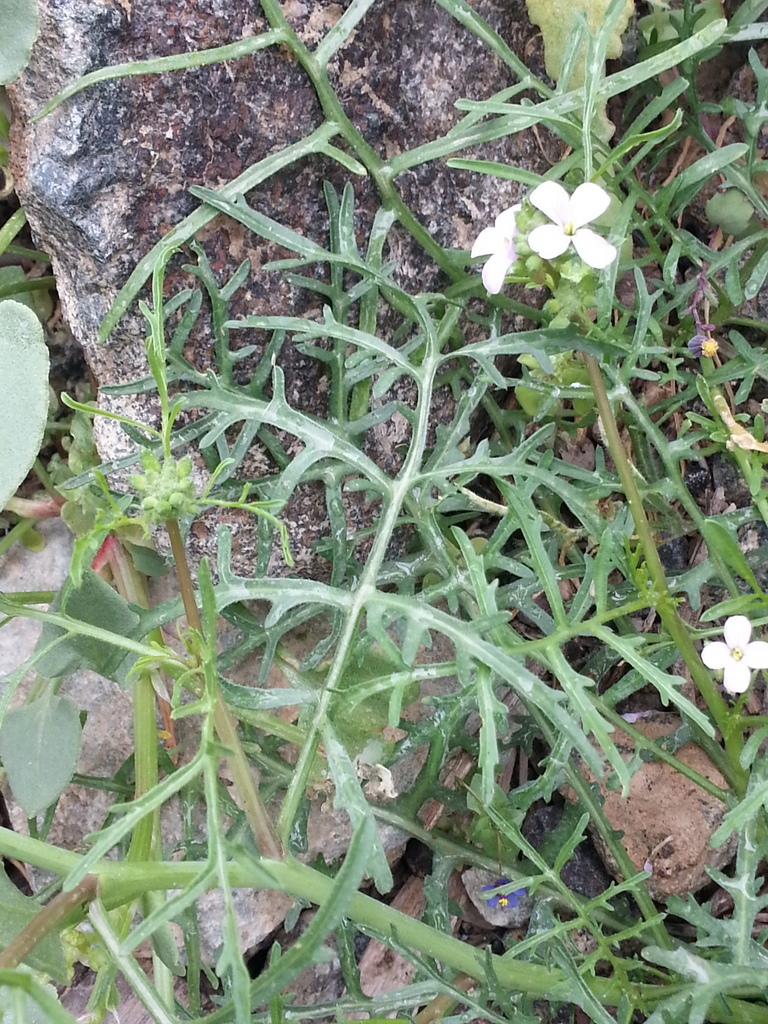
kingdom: Plantae
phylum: Tracheophyta
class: Magnoliopsida
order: Brassicales
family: Brassicaceae
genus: Erucaria
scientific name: Erucaria hispanica
